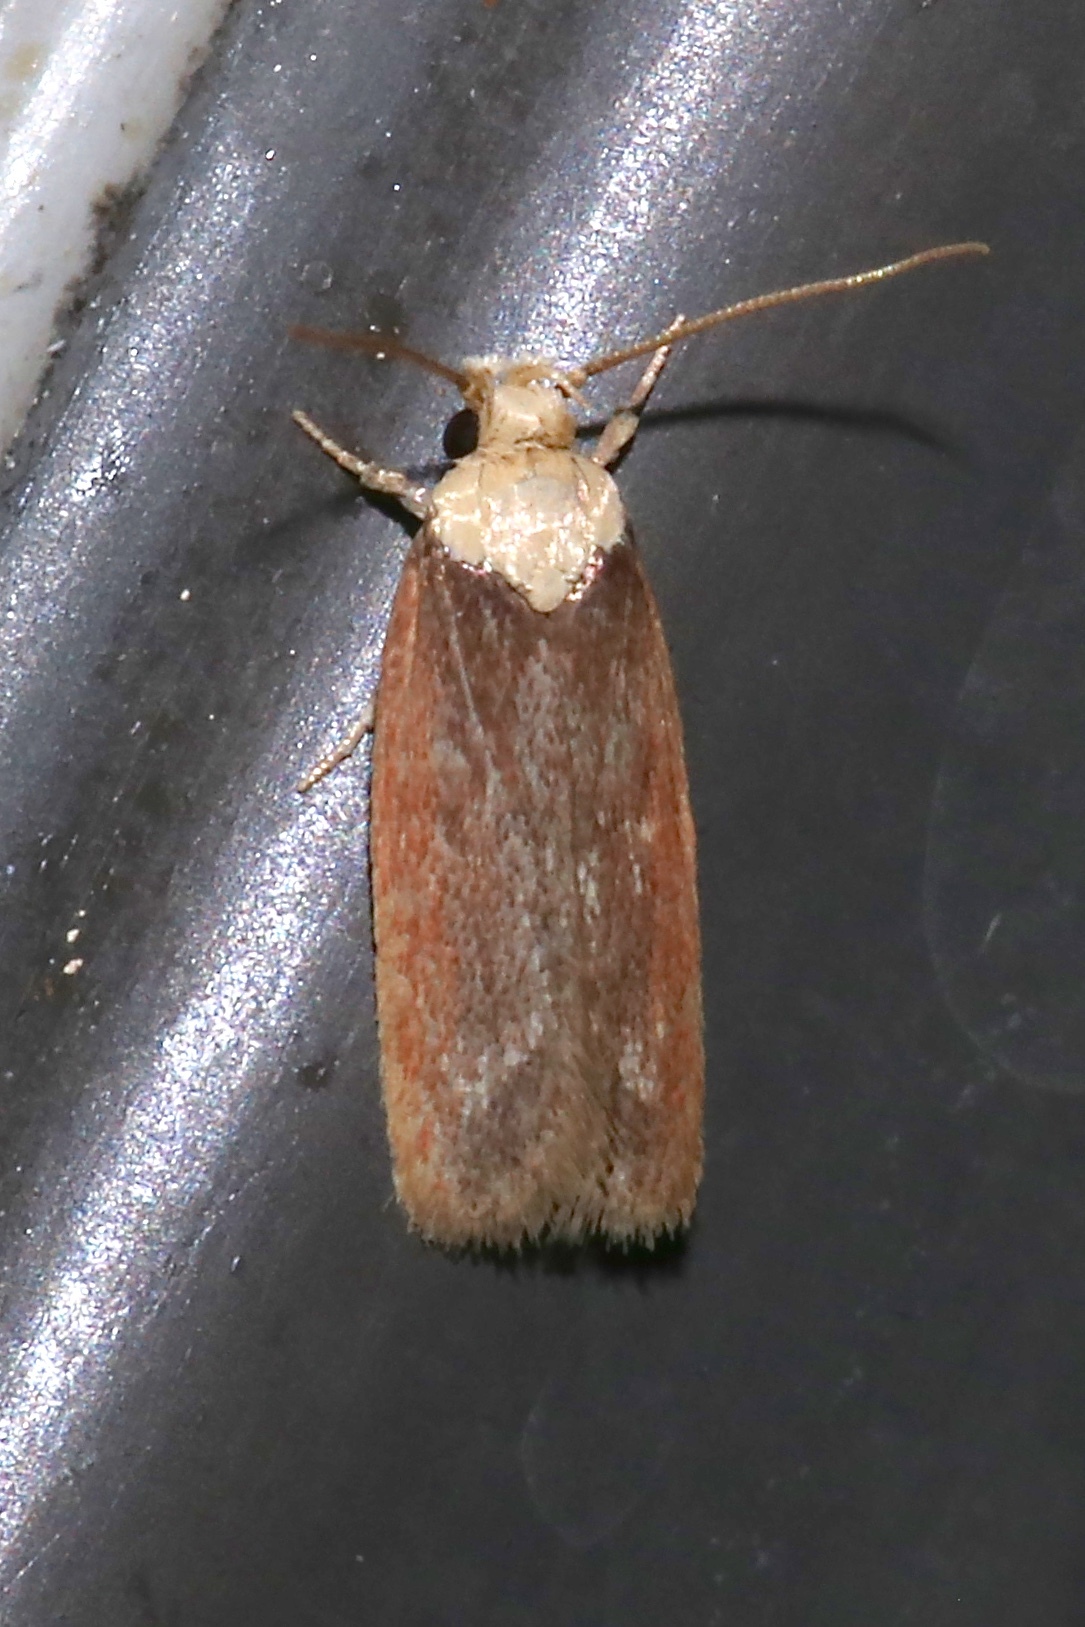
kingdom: Animalia
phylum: Arthropoda
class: Insecta
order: Lepidoptera
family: Depressariidae
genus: Depressaria
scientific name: Depressaria depressana
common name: Lost flat-body
